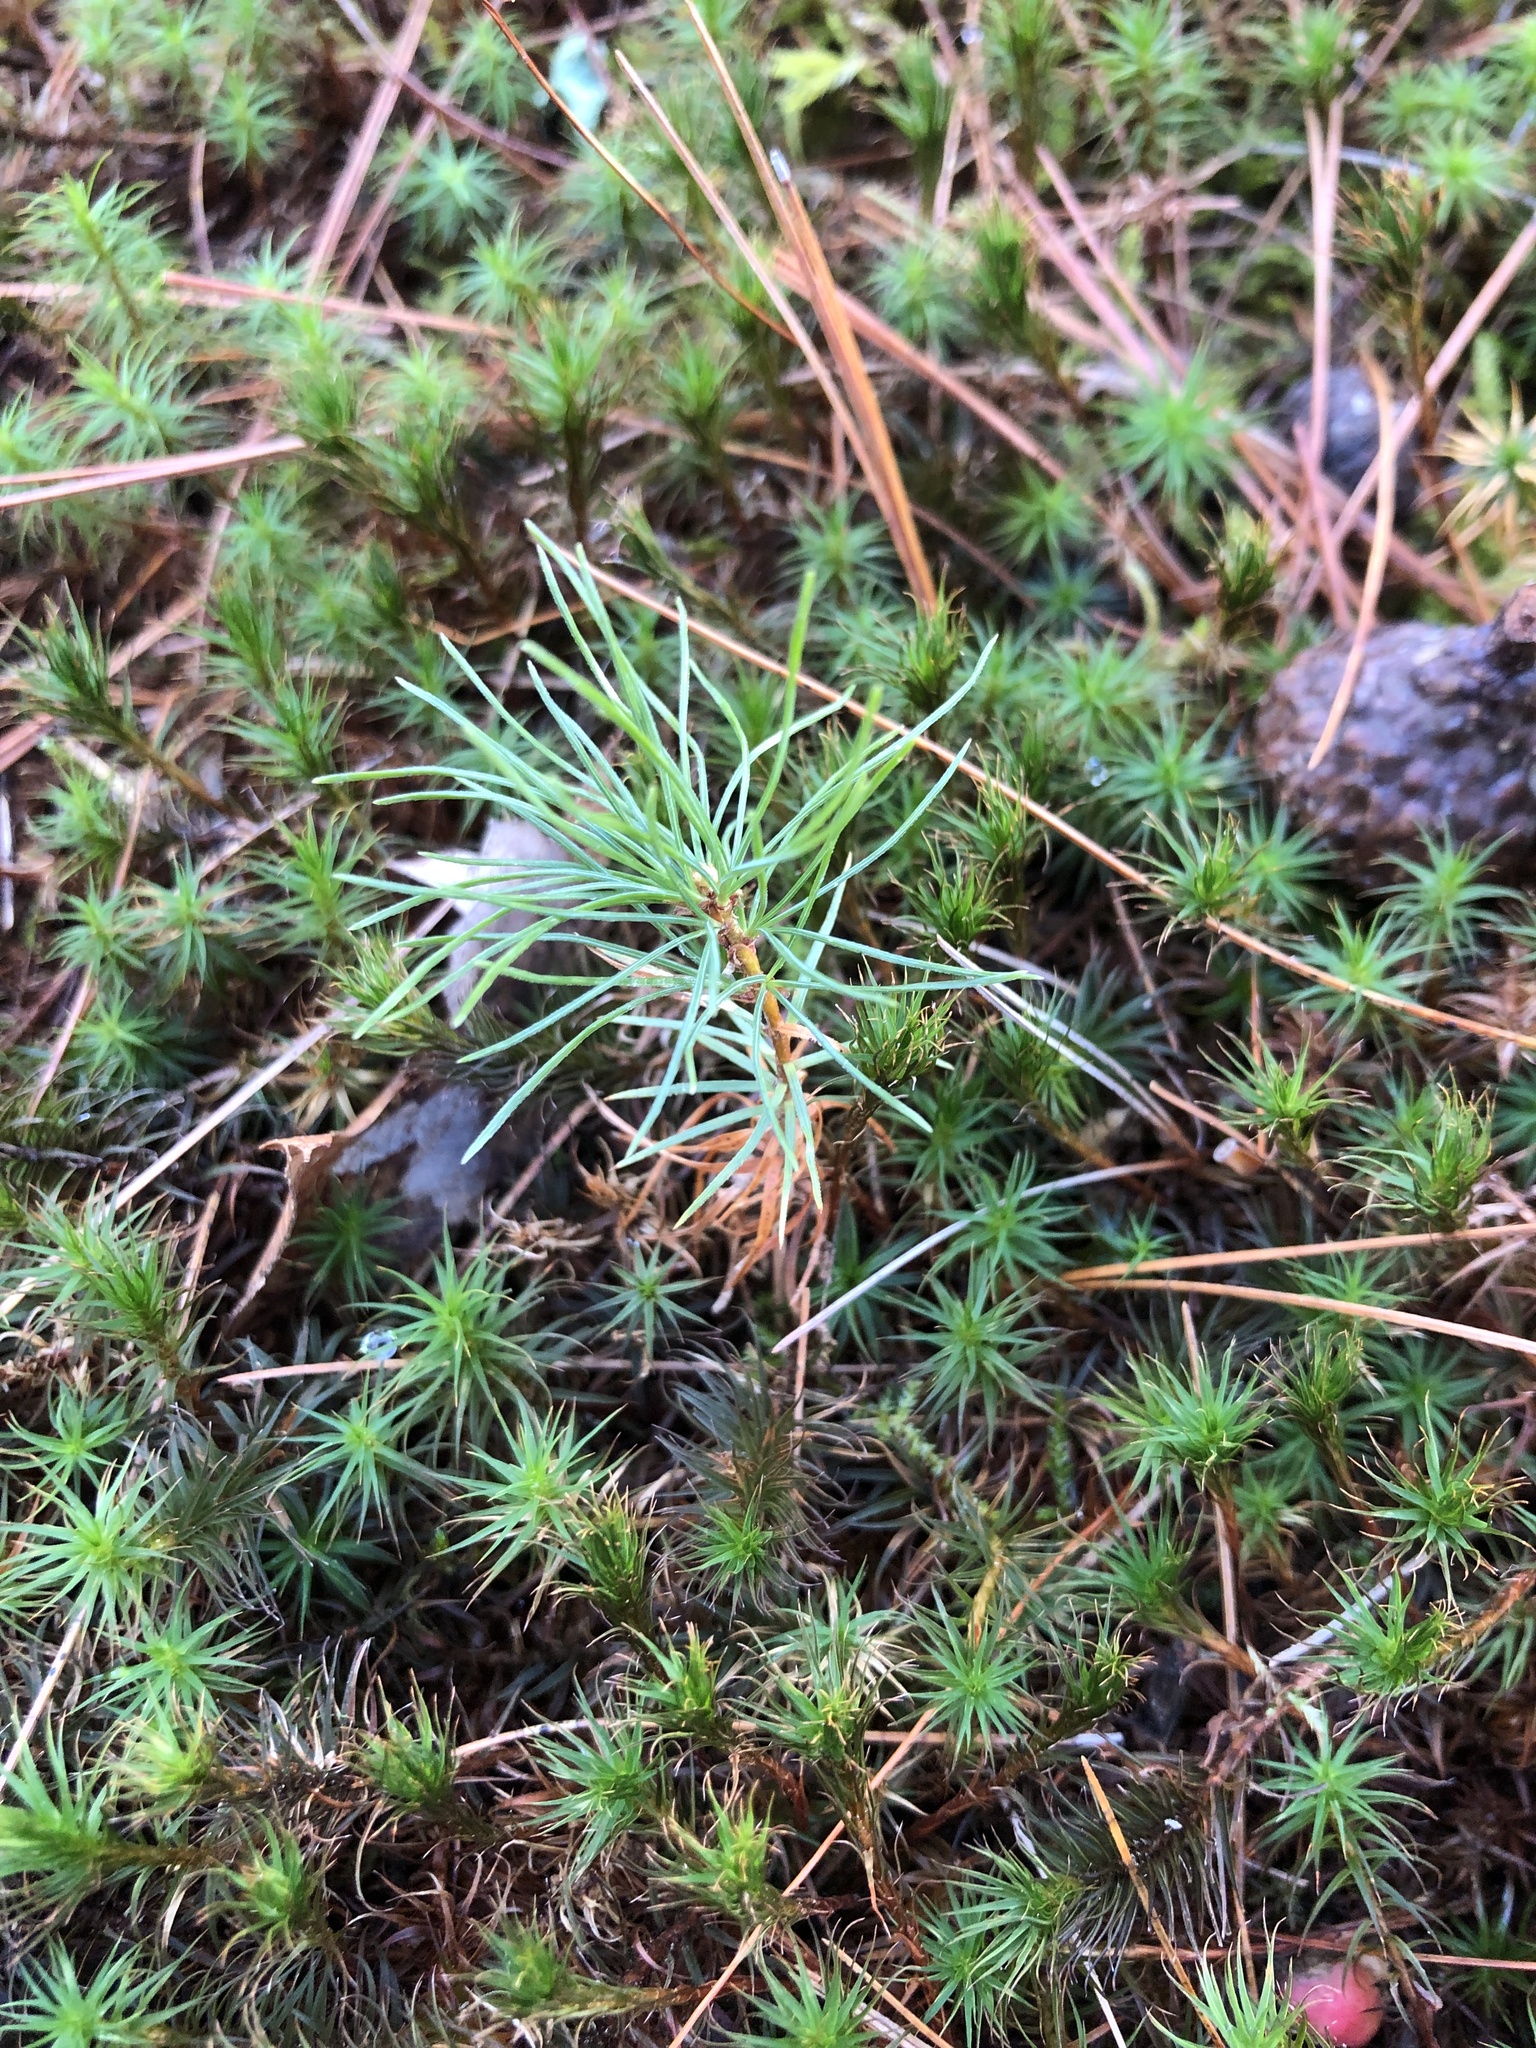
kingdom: Plantae
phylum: Tracheophyta
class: Pinopsida
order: Pinales
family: Pinaceae
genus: Pinus
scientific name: Pinus strobus
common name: Weymouth pine
